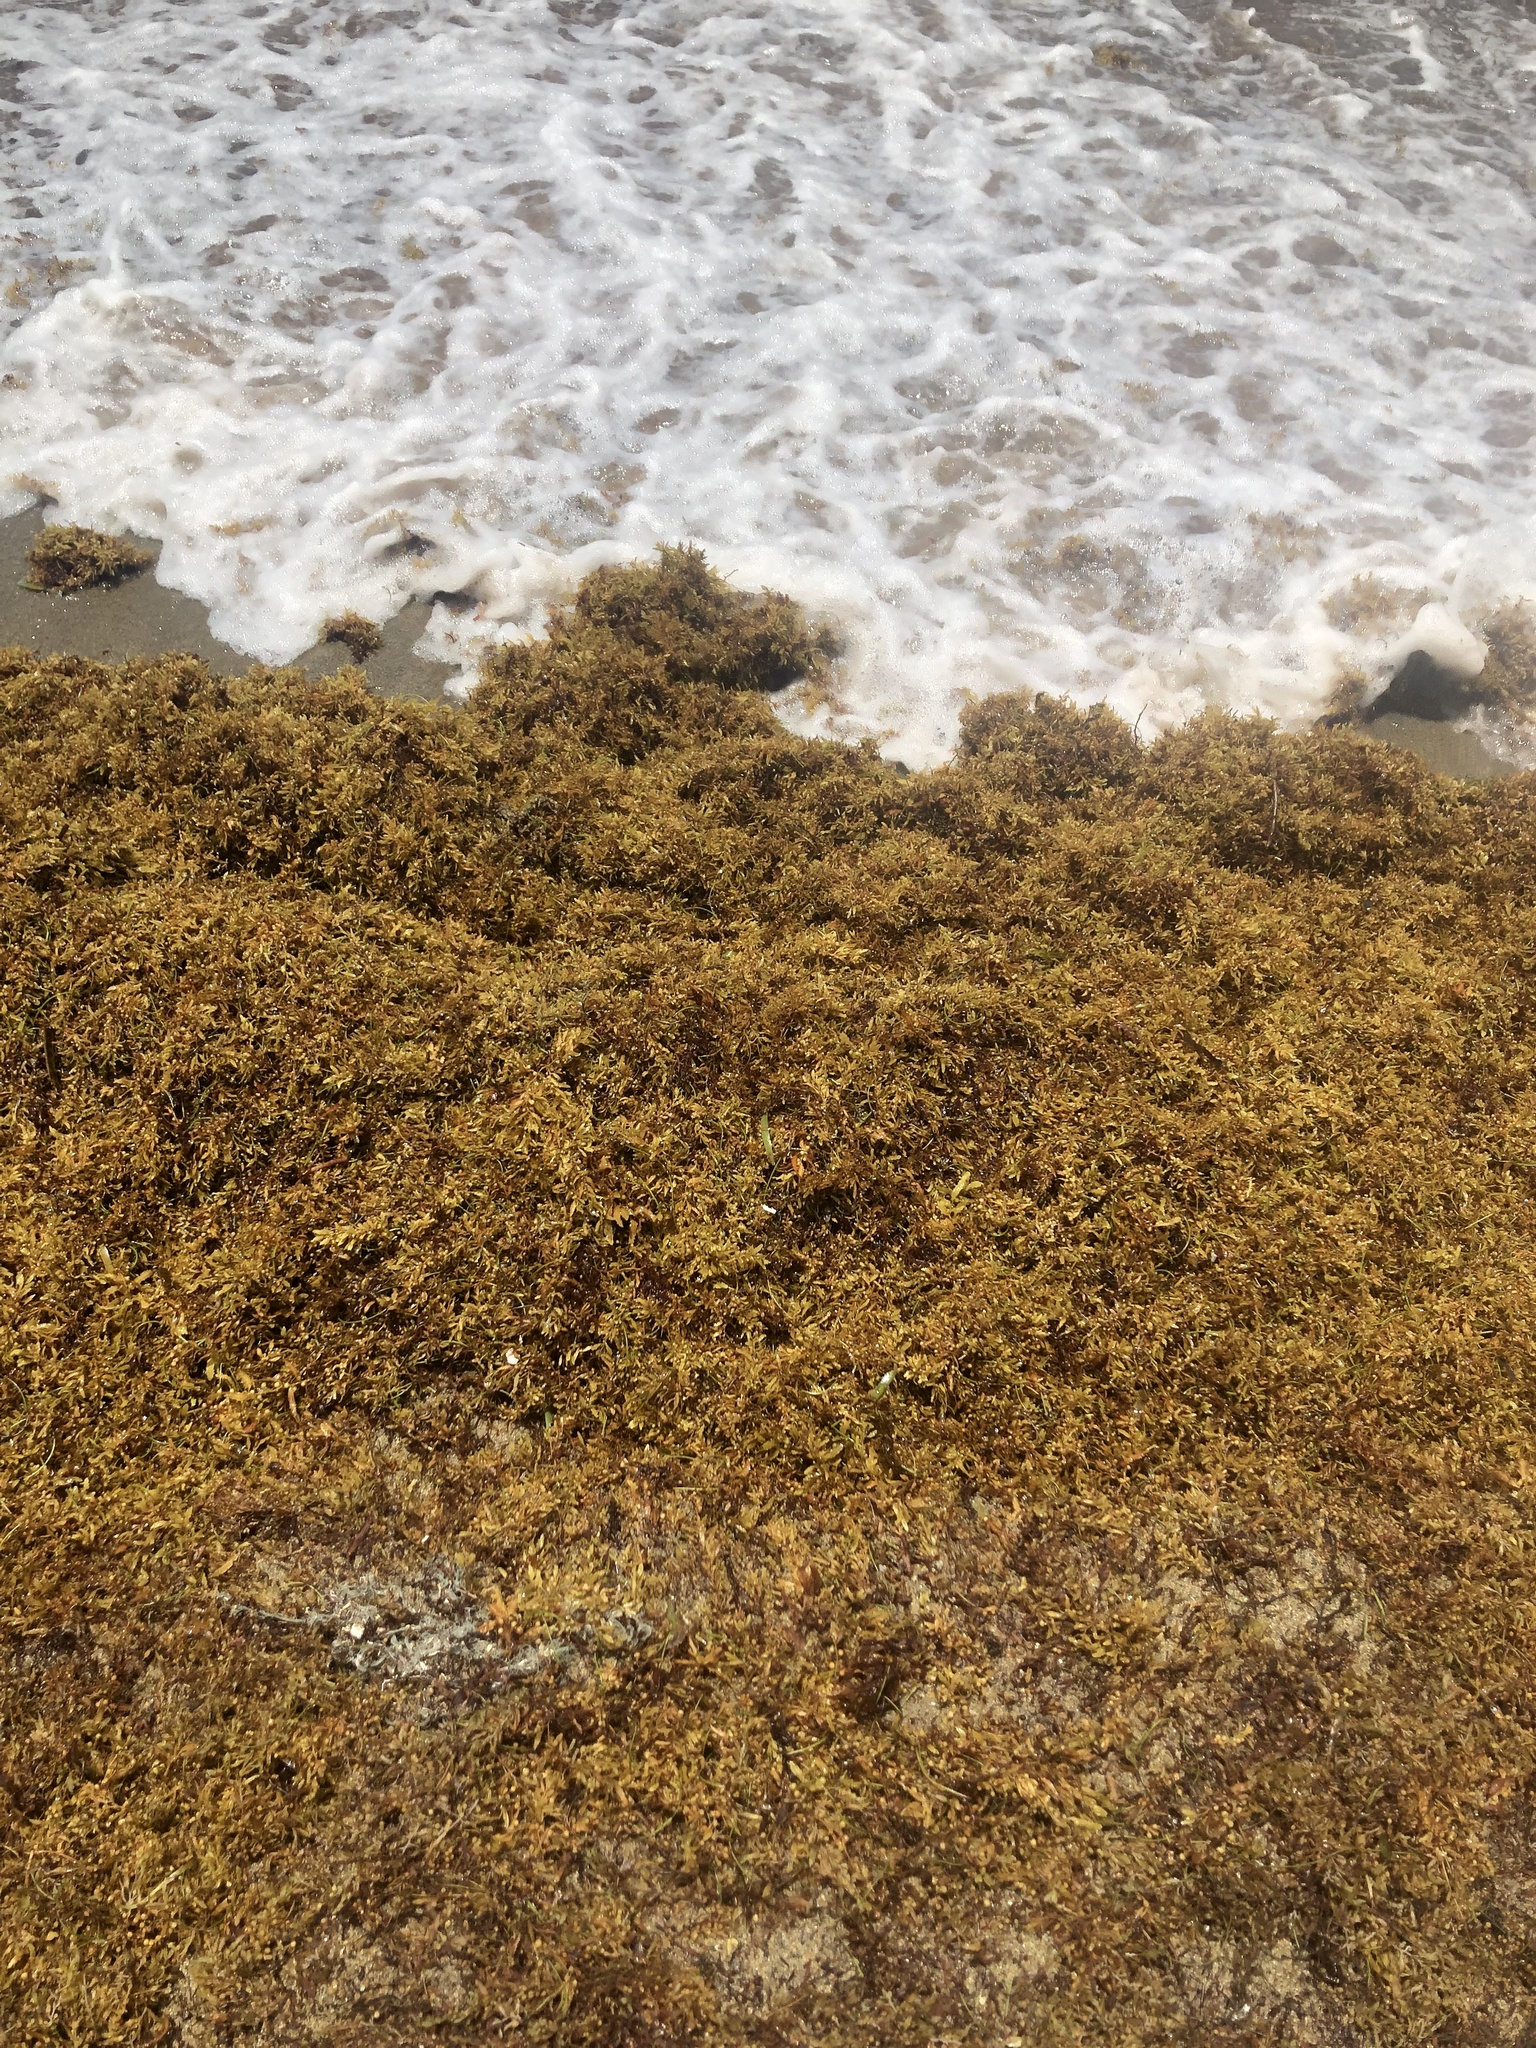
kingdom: Chromista
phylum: Ochrophyta
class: Phaeophyceae
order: Fucales
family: Sargassaceae
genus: Sargassum
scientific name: Sargassum fluitans
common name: Sargassum seaweed
